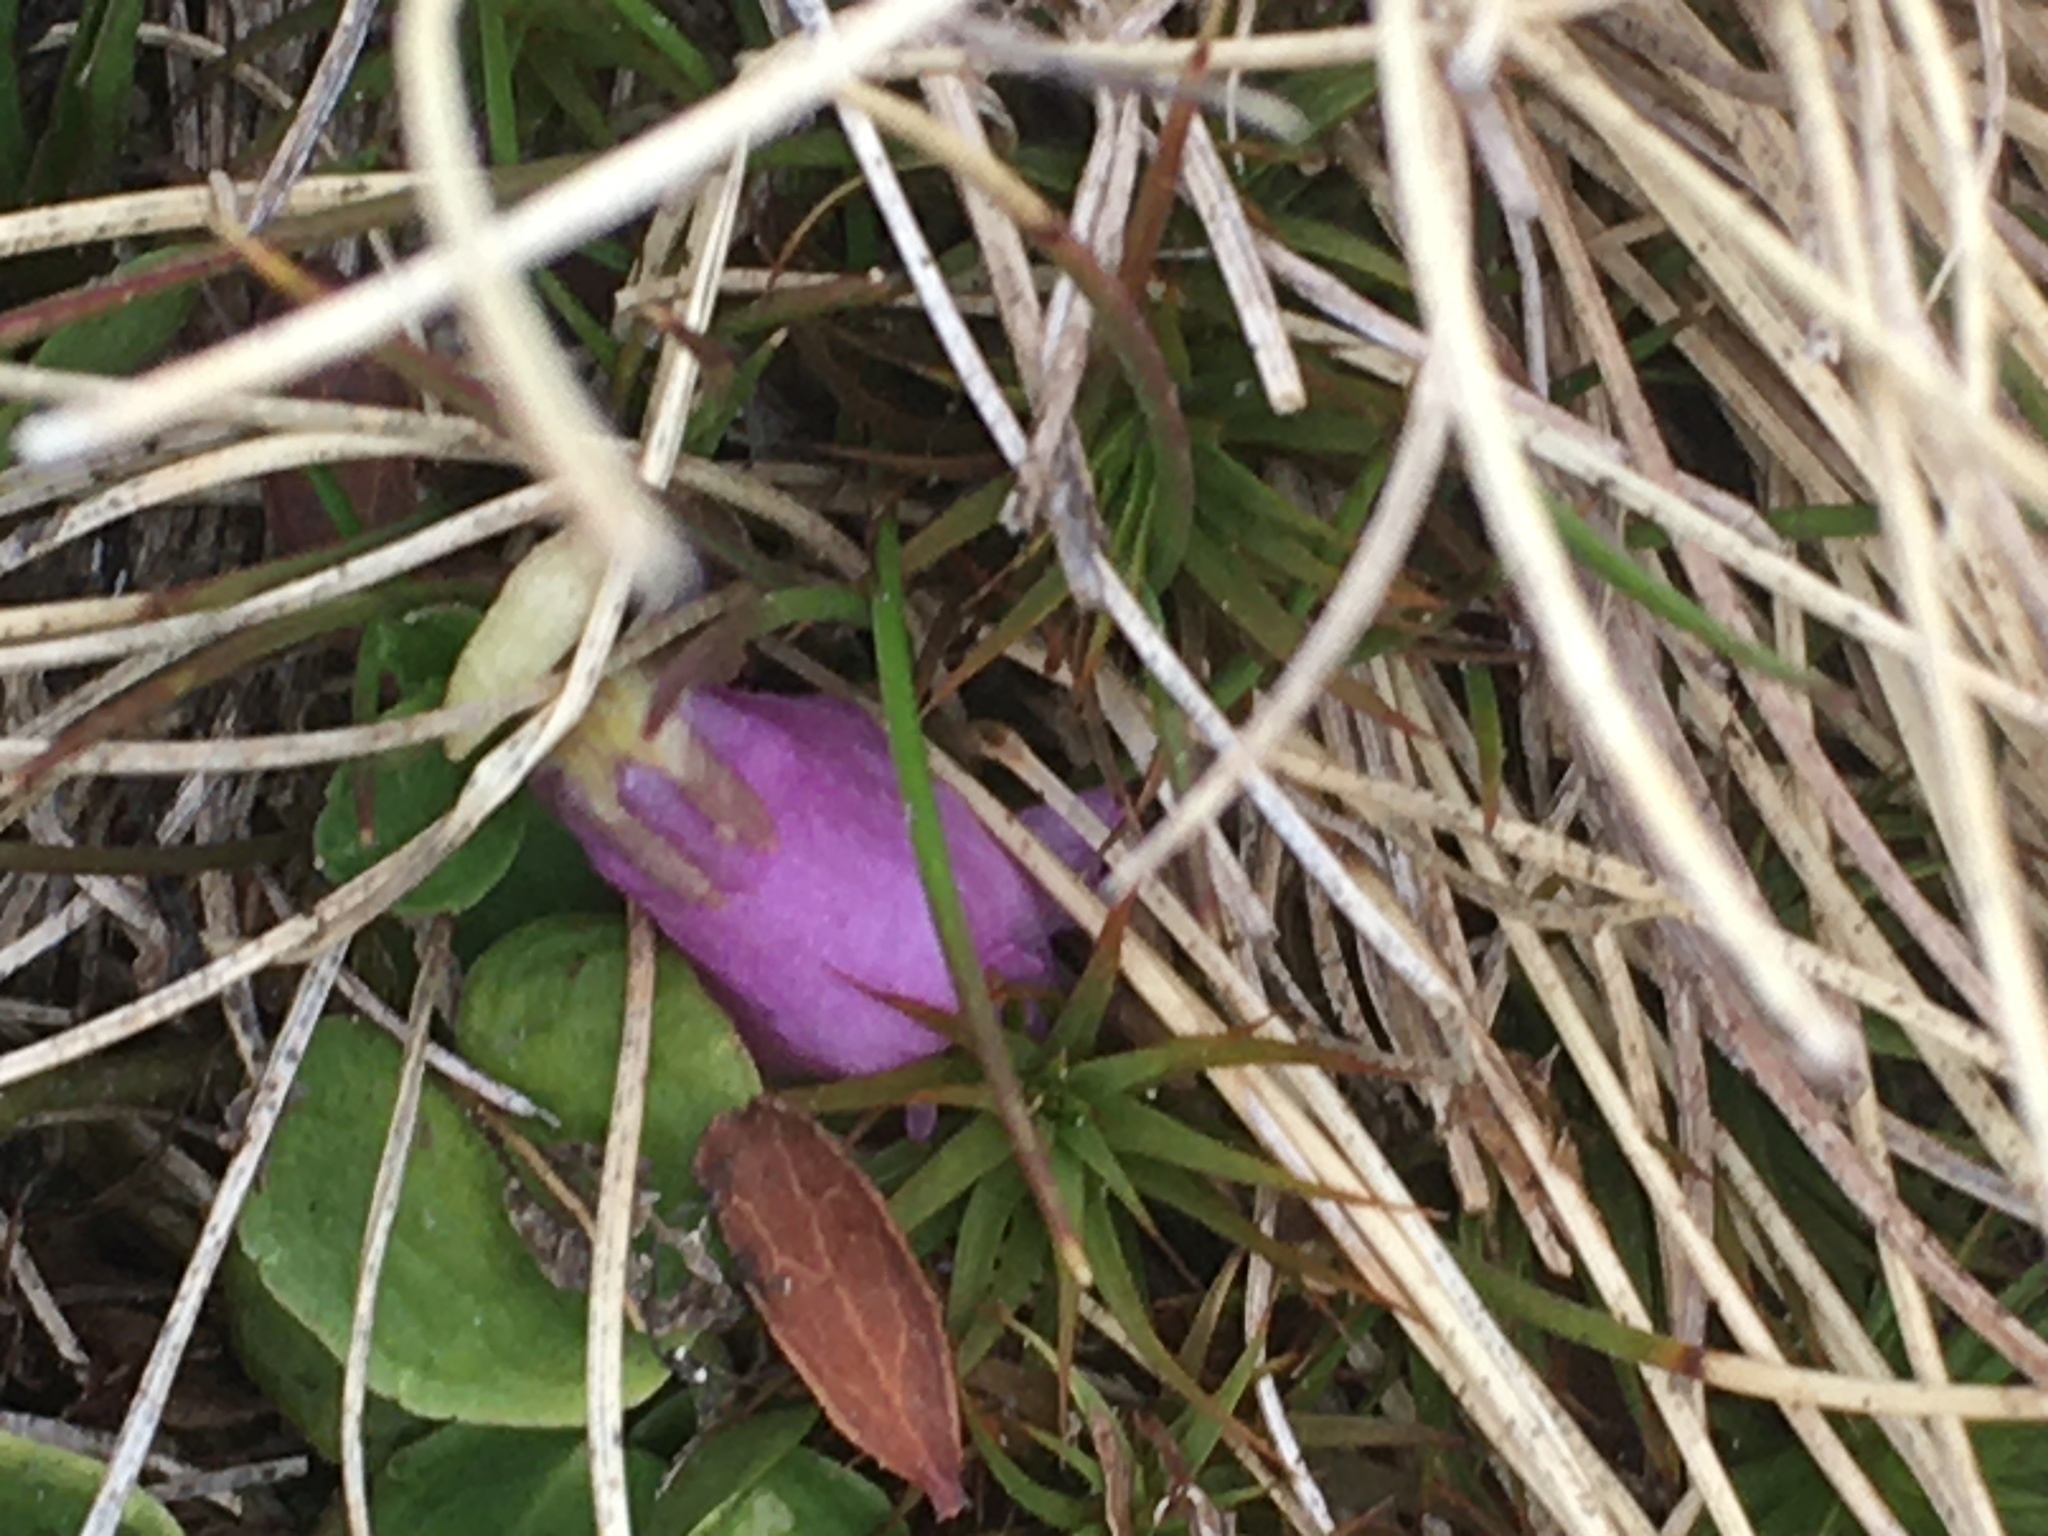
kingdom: Plantae
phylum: Tracheophyta
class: Magnoliopsida
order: Ericales
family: Primulaceae
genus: Soldanella
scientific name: Soldanella pusilla
